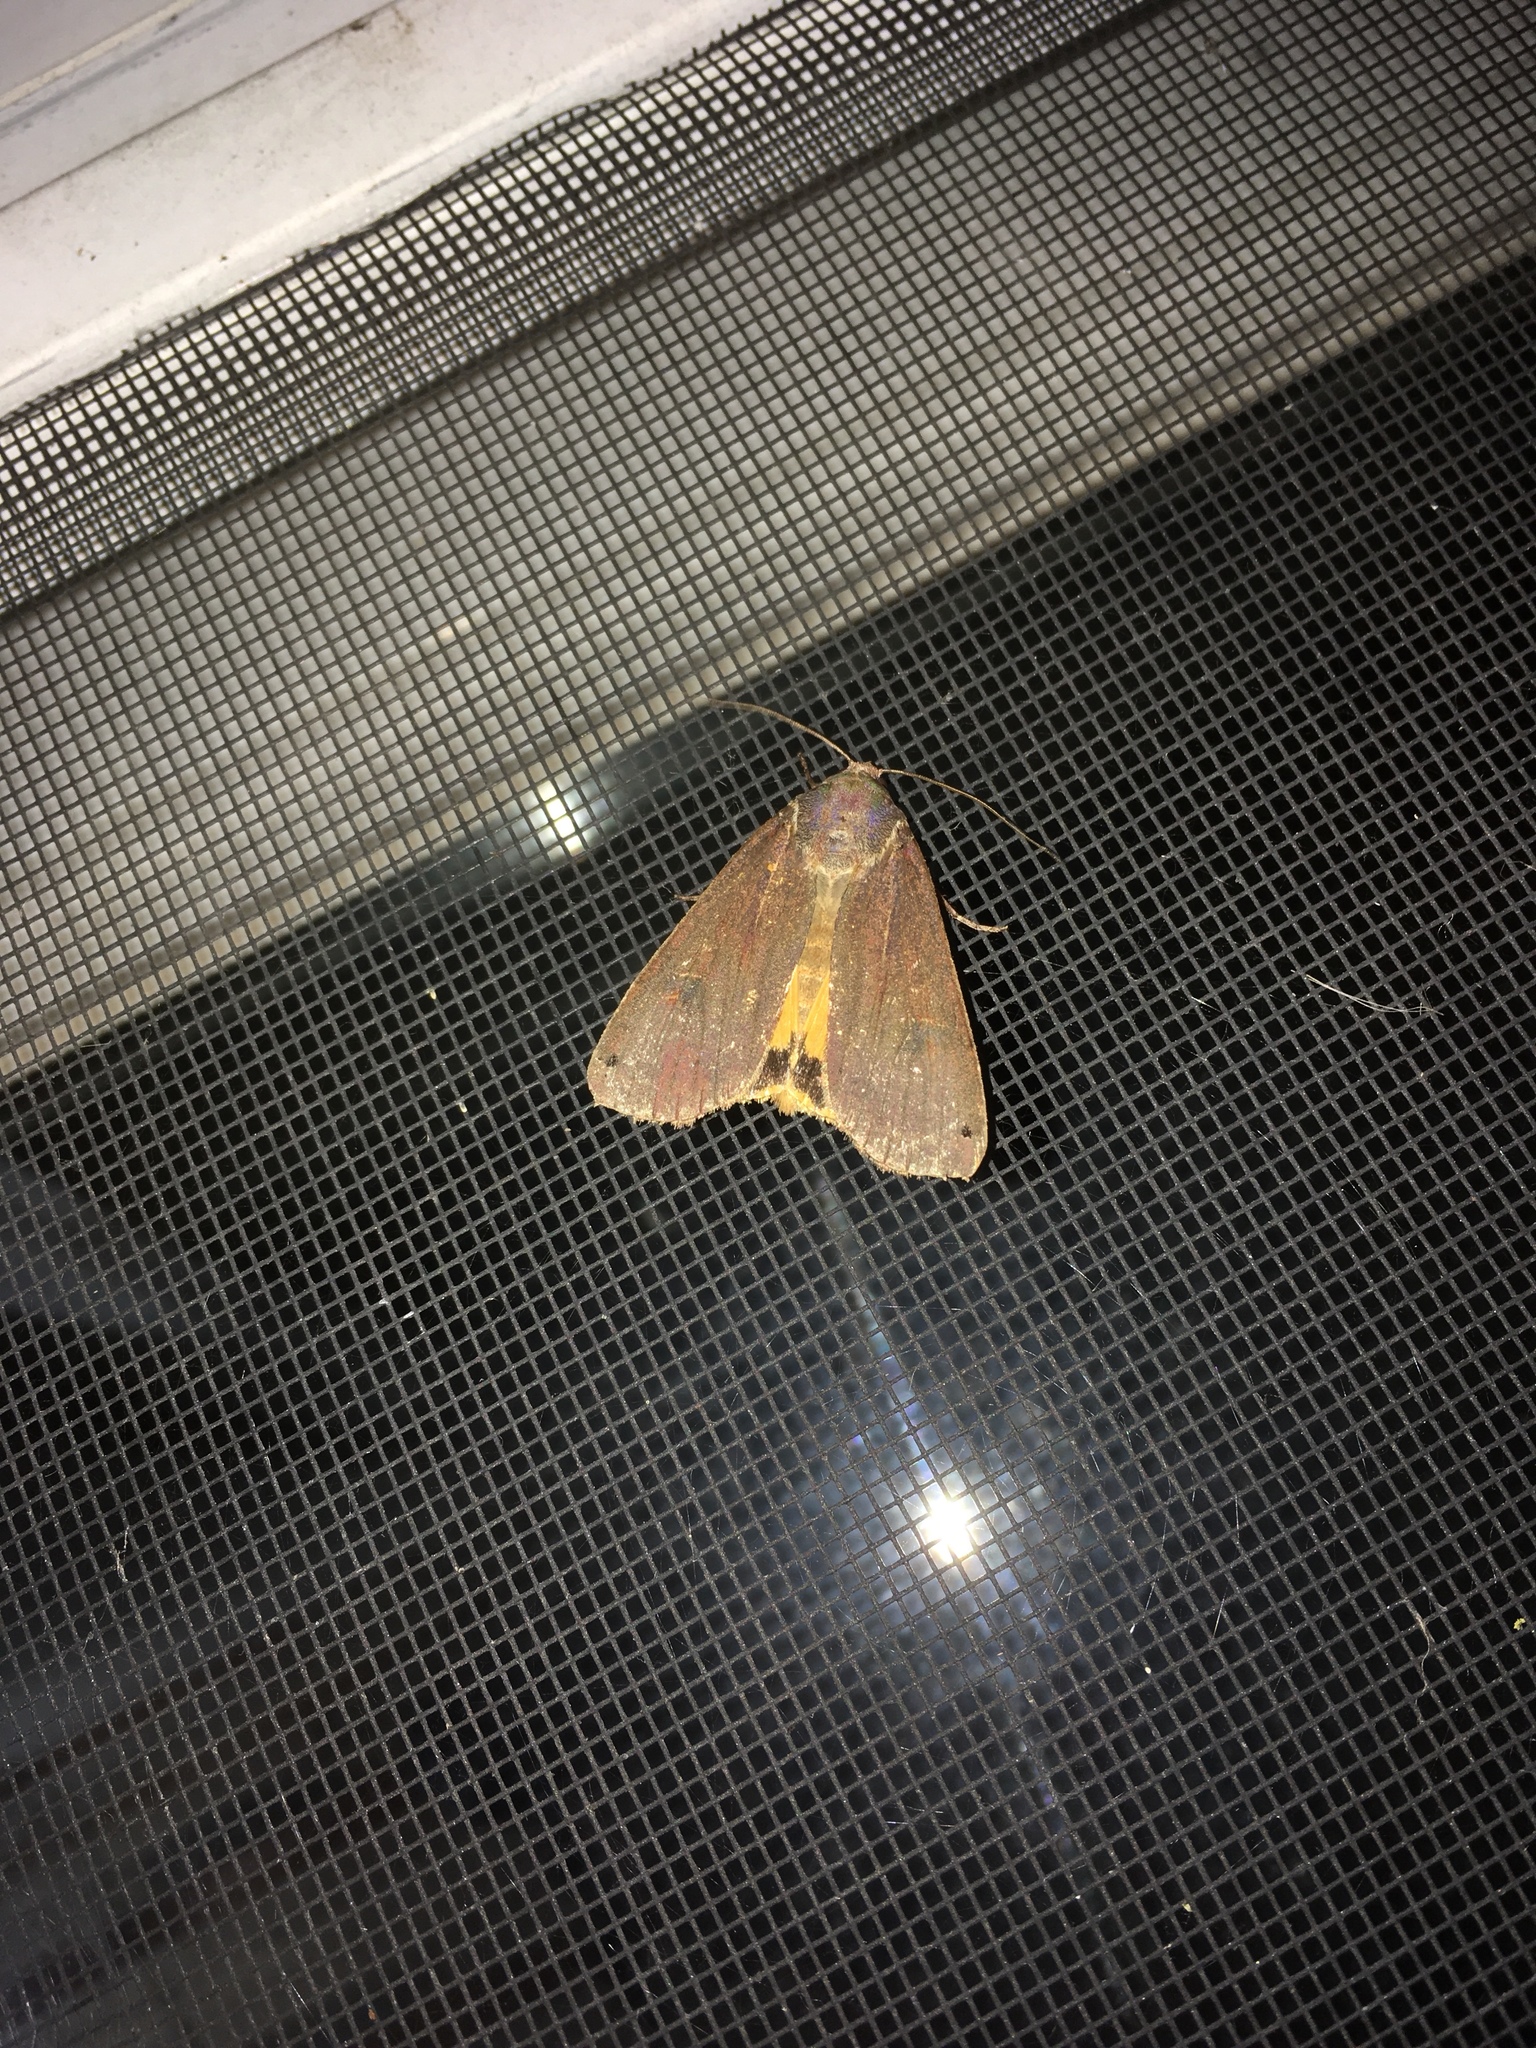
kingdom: Animalia
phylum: Arthropoda
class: Insecta
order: Lepidoptera
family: Noctuidae
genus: Noctua
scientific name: Noctua pronuba
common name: Large yellow underwing
